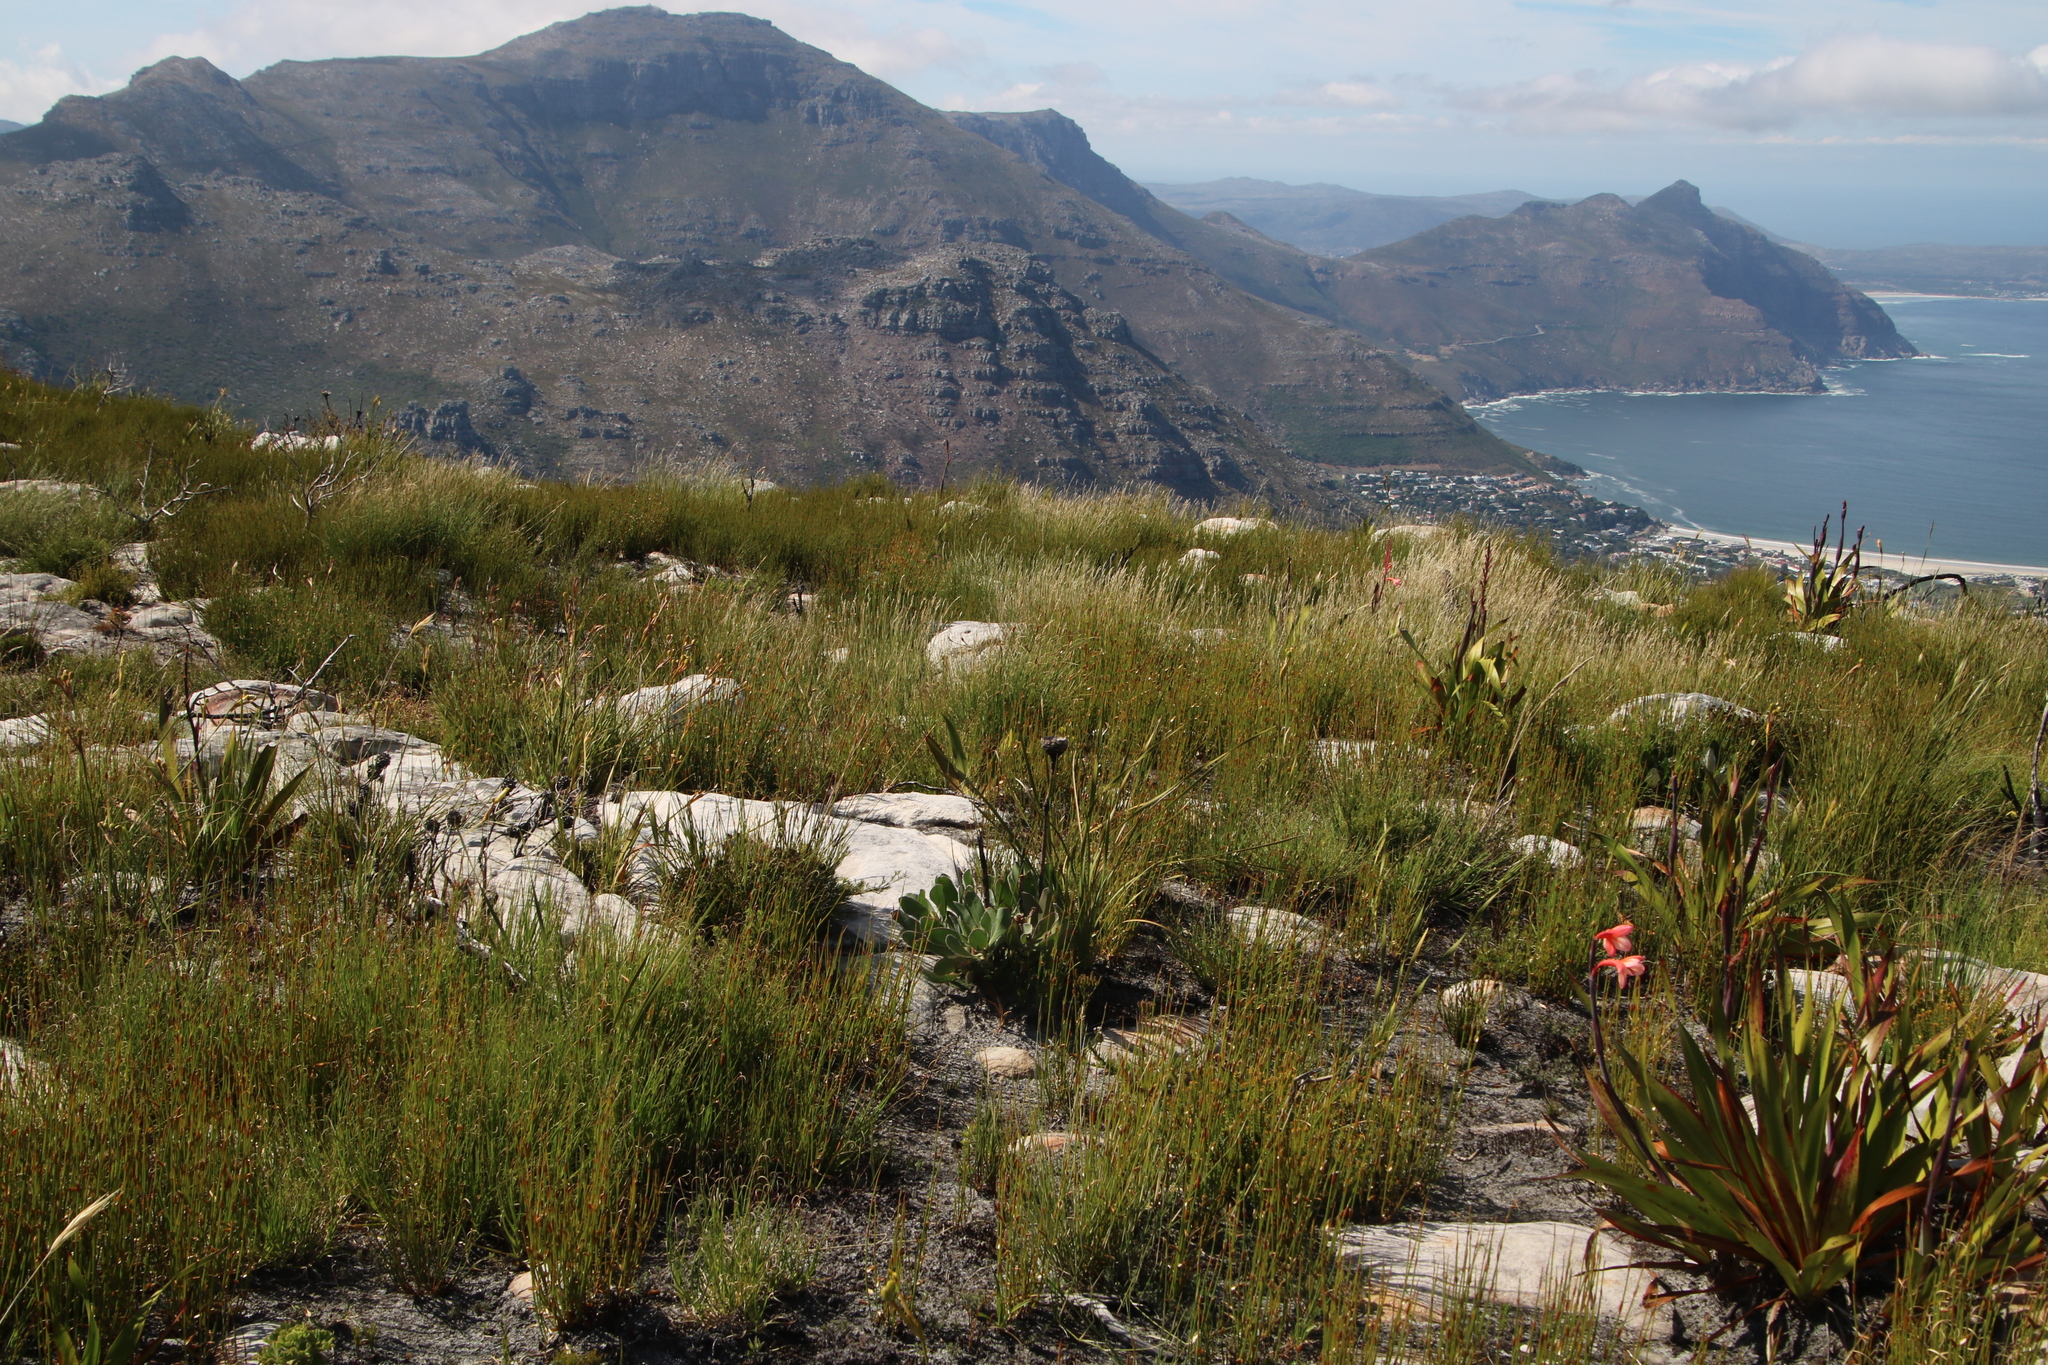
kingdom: Plantae
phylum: Tracheophyta
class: Magnoliopsida
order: Proteales
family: Proteaceae
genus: Protea
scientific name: Protea speciosa
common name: Brown-beard sugarbush
